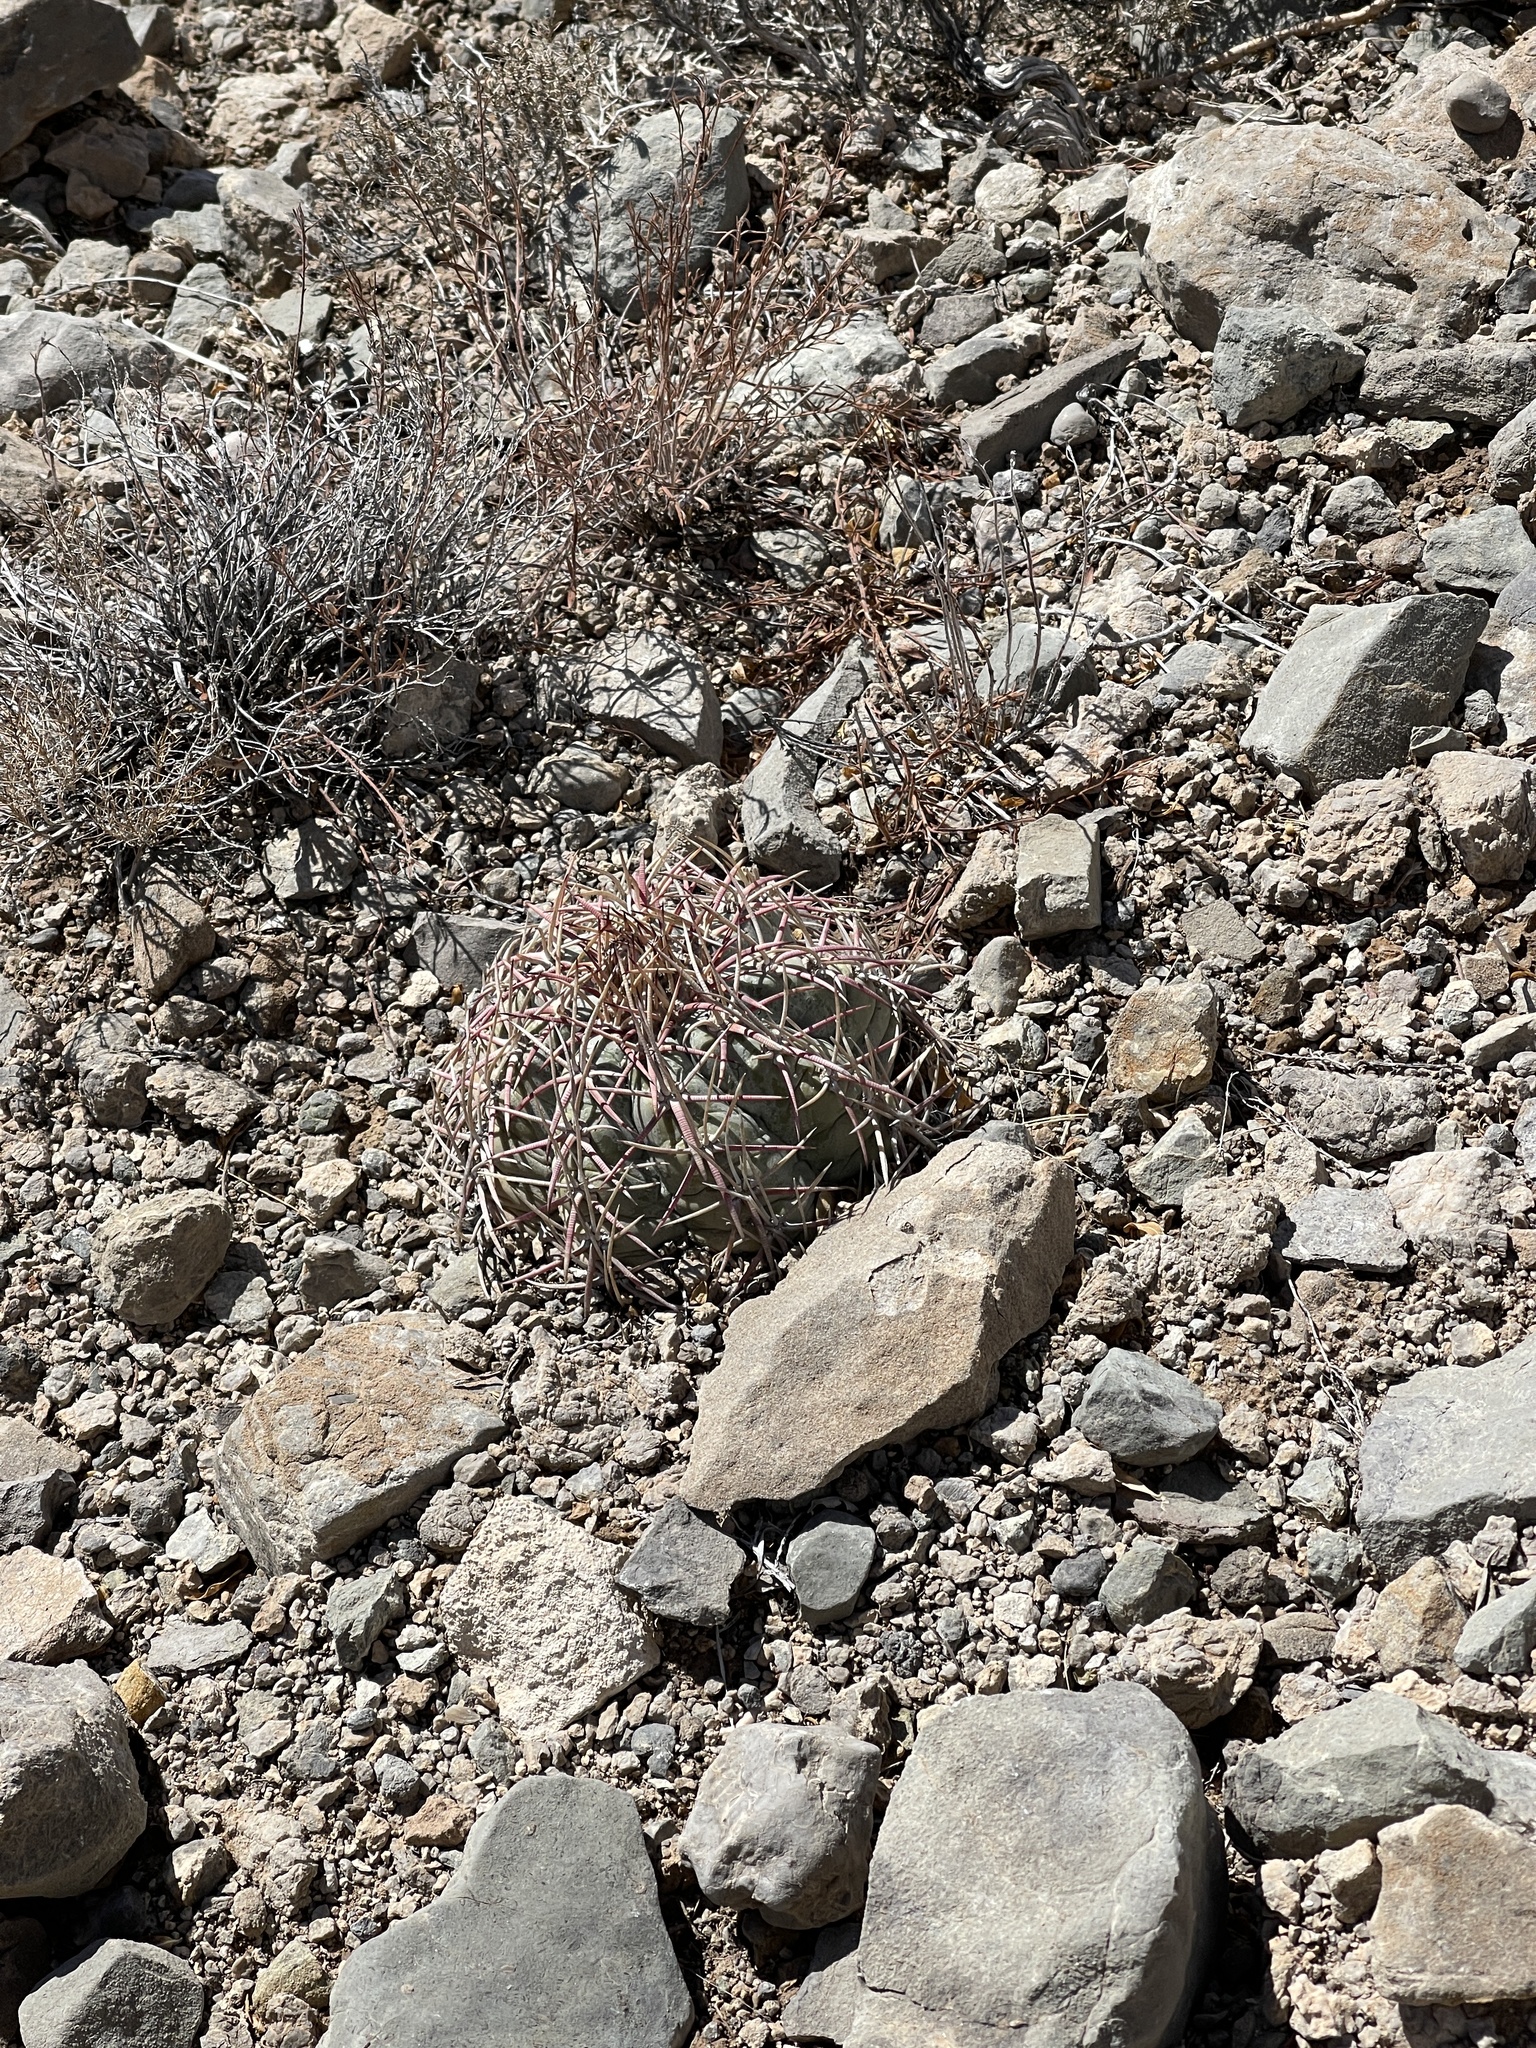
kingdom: Plantae
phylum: Tracheophyta
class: Magnoliopsida
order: Caryophyllales
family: Cactaceae
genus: Echinocactus
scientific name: Echinocactus horizonthalonius
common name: Devilshead
